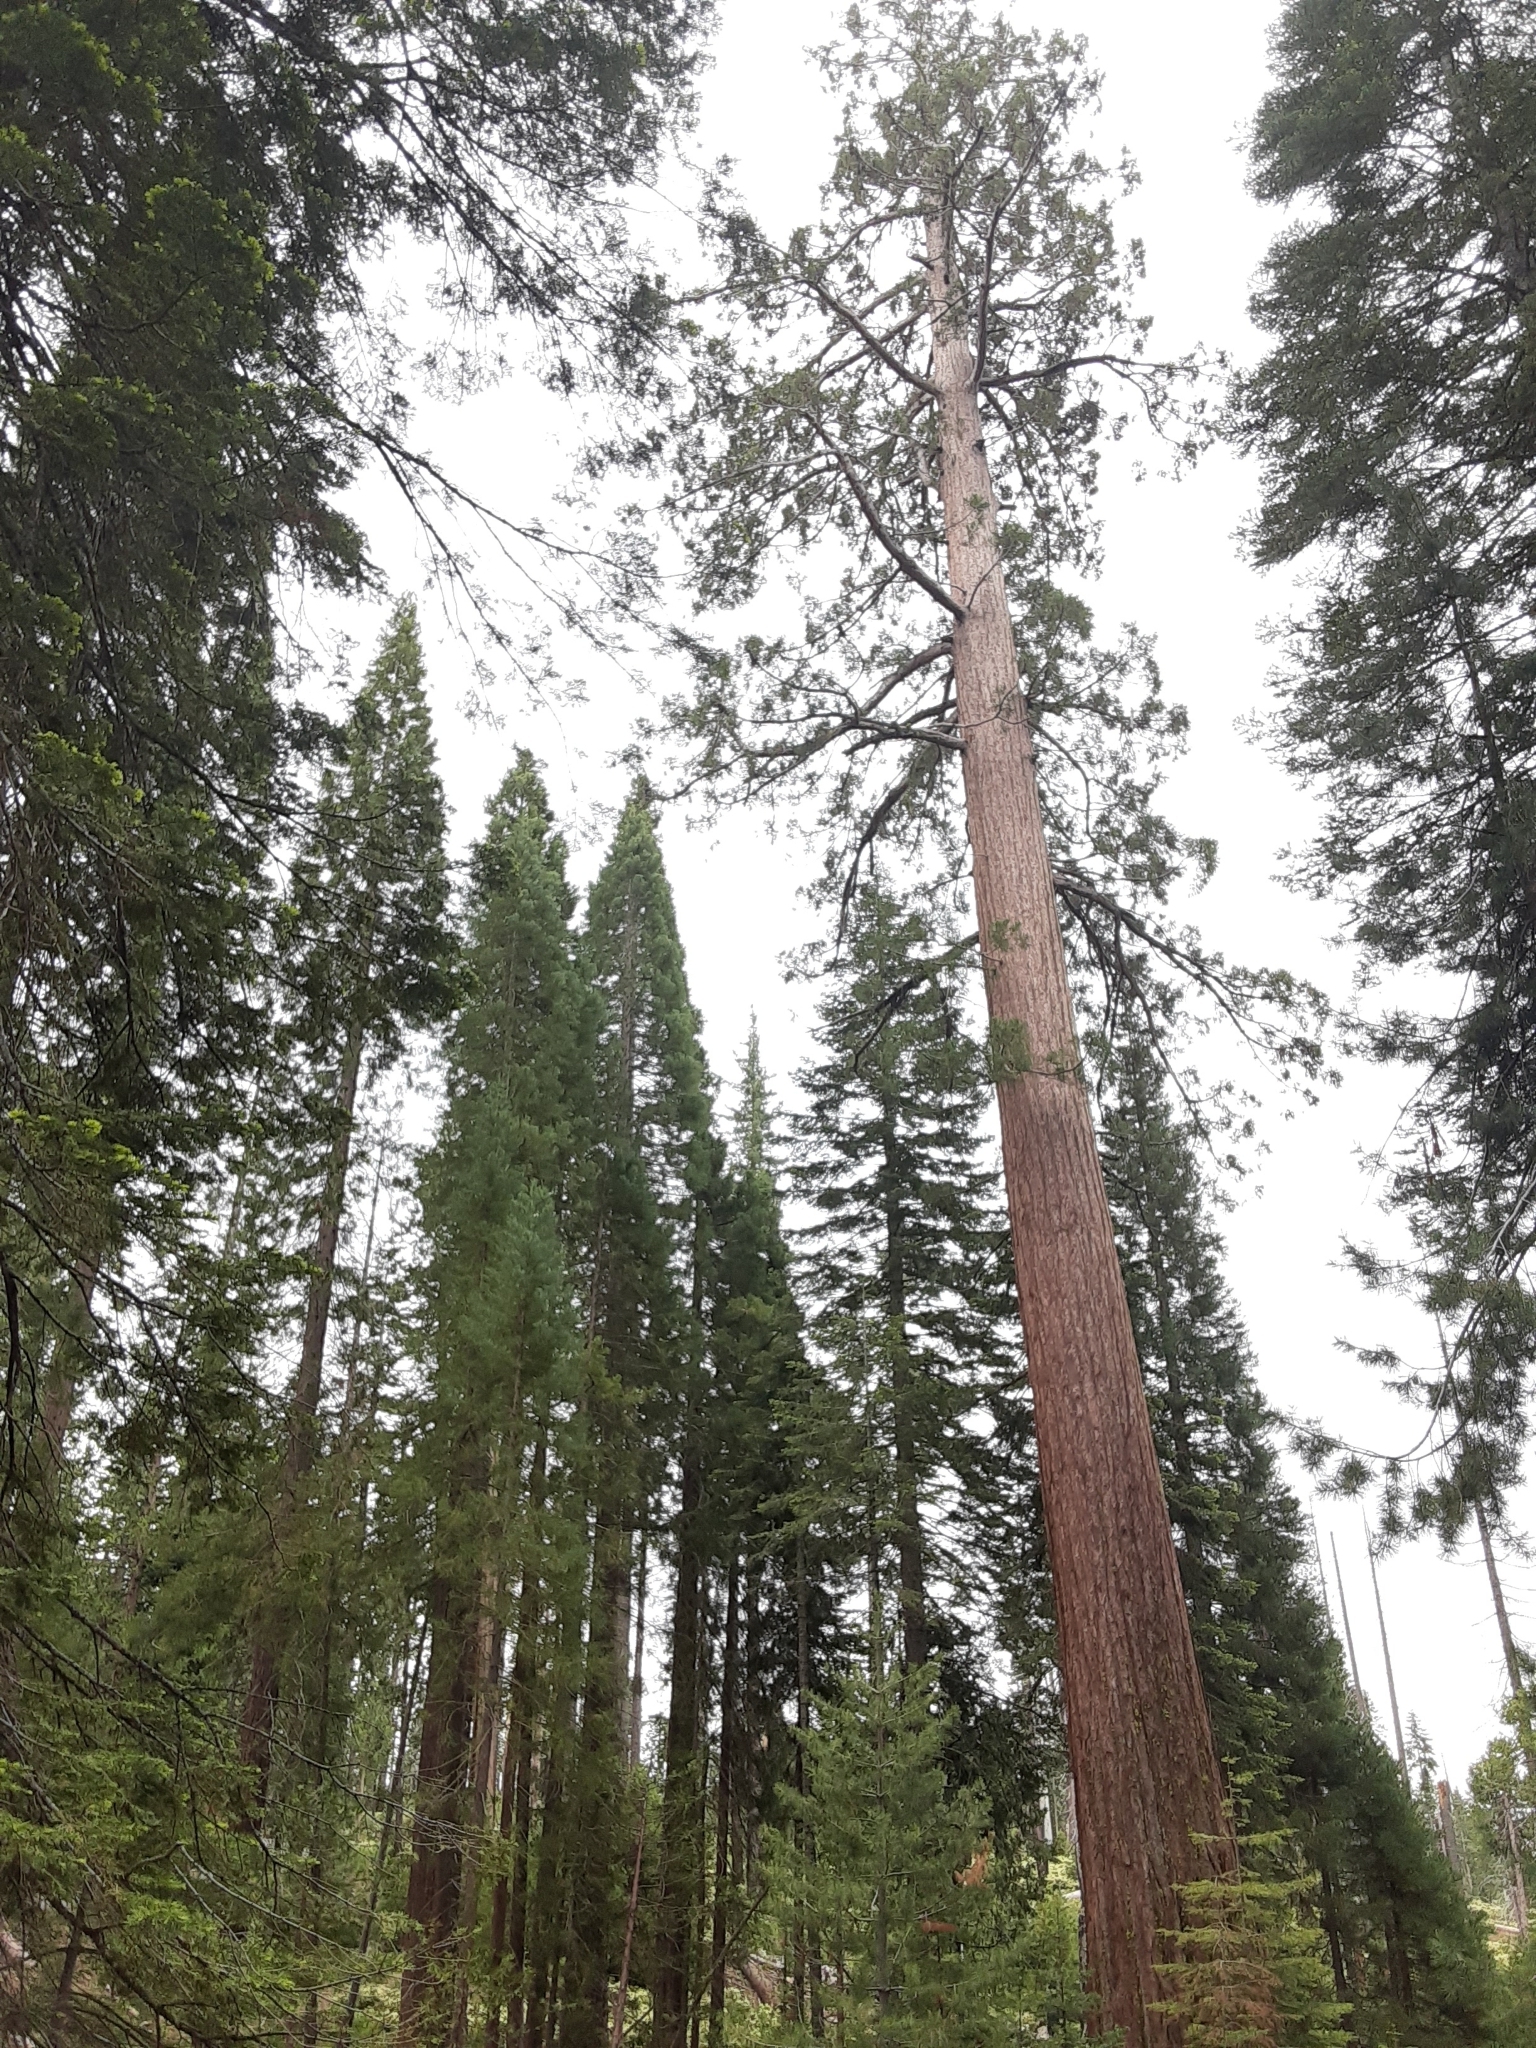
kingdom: Plantae
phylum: Tracheophyta
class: Pinopsida
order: Pinales
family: Cupressaceae
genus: Sequoiadendron
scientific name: Sequoiadendron giganteum
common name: Wellingtonia
